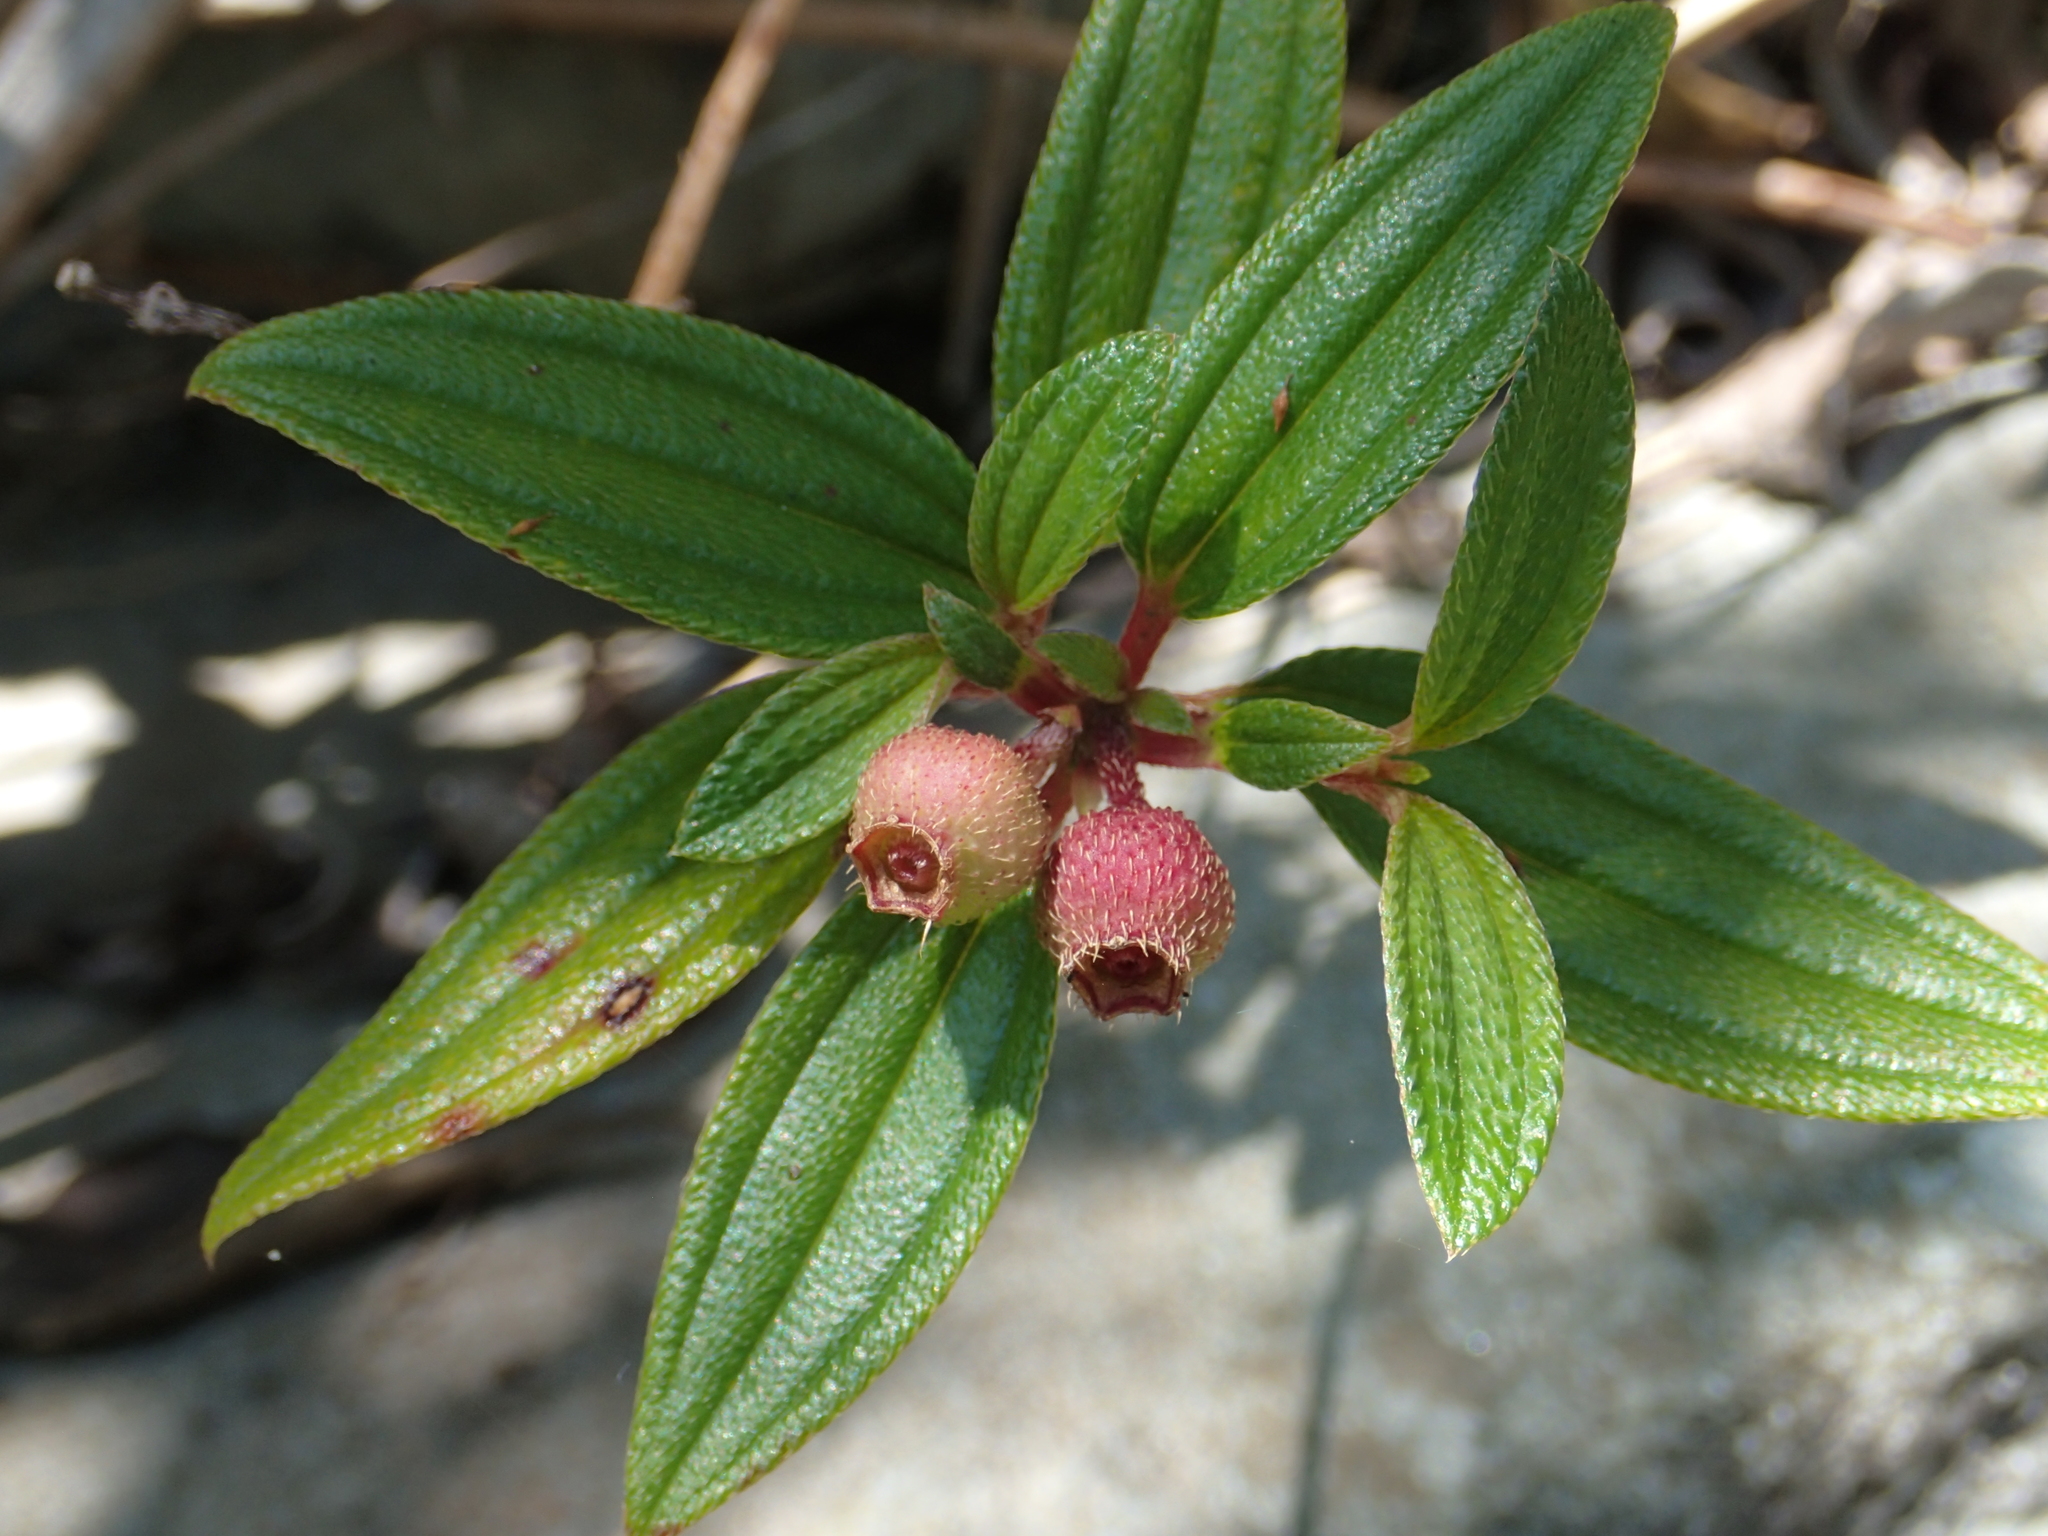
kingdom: Plantae
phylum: Tracheophyta
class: Magnoliopsida
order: Myrtales
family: Melastomataceae
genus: Melastoma
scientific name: Melastoma scaberrima
